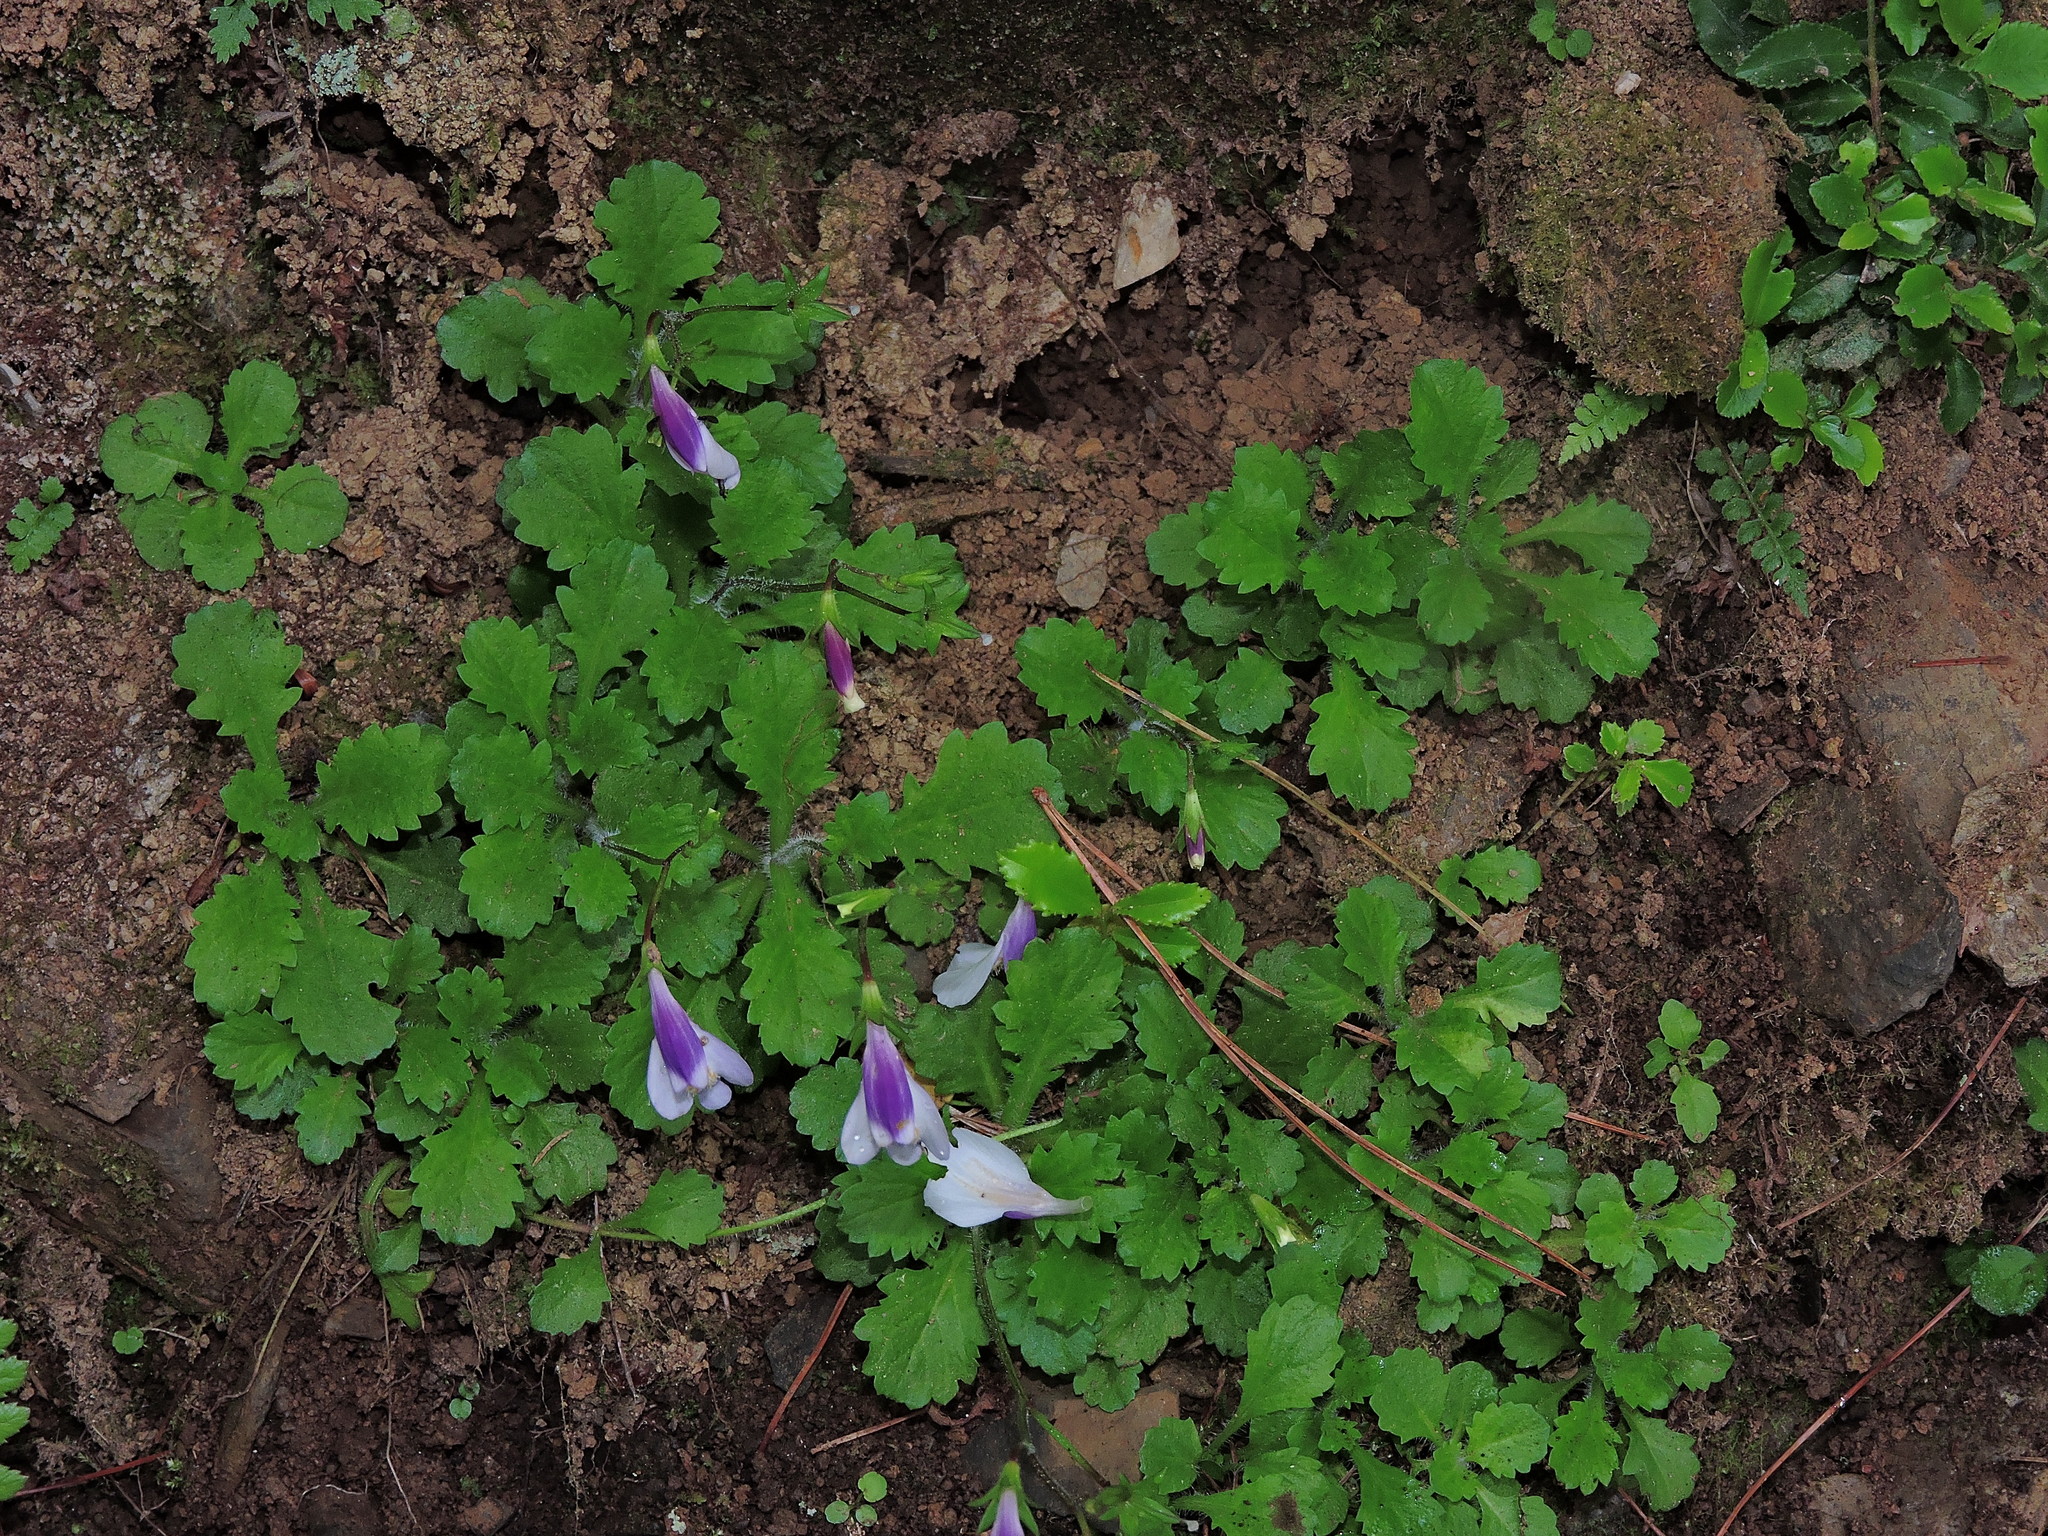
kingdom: Plantae
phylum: Tracheophyta
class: Magnoliopsida
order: Lamiales
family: Mazaceae
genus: Mazus
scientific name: Mazus alpinus
